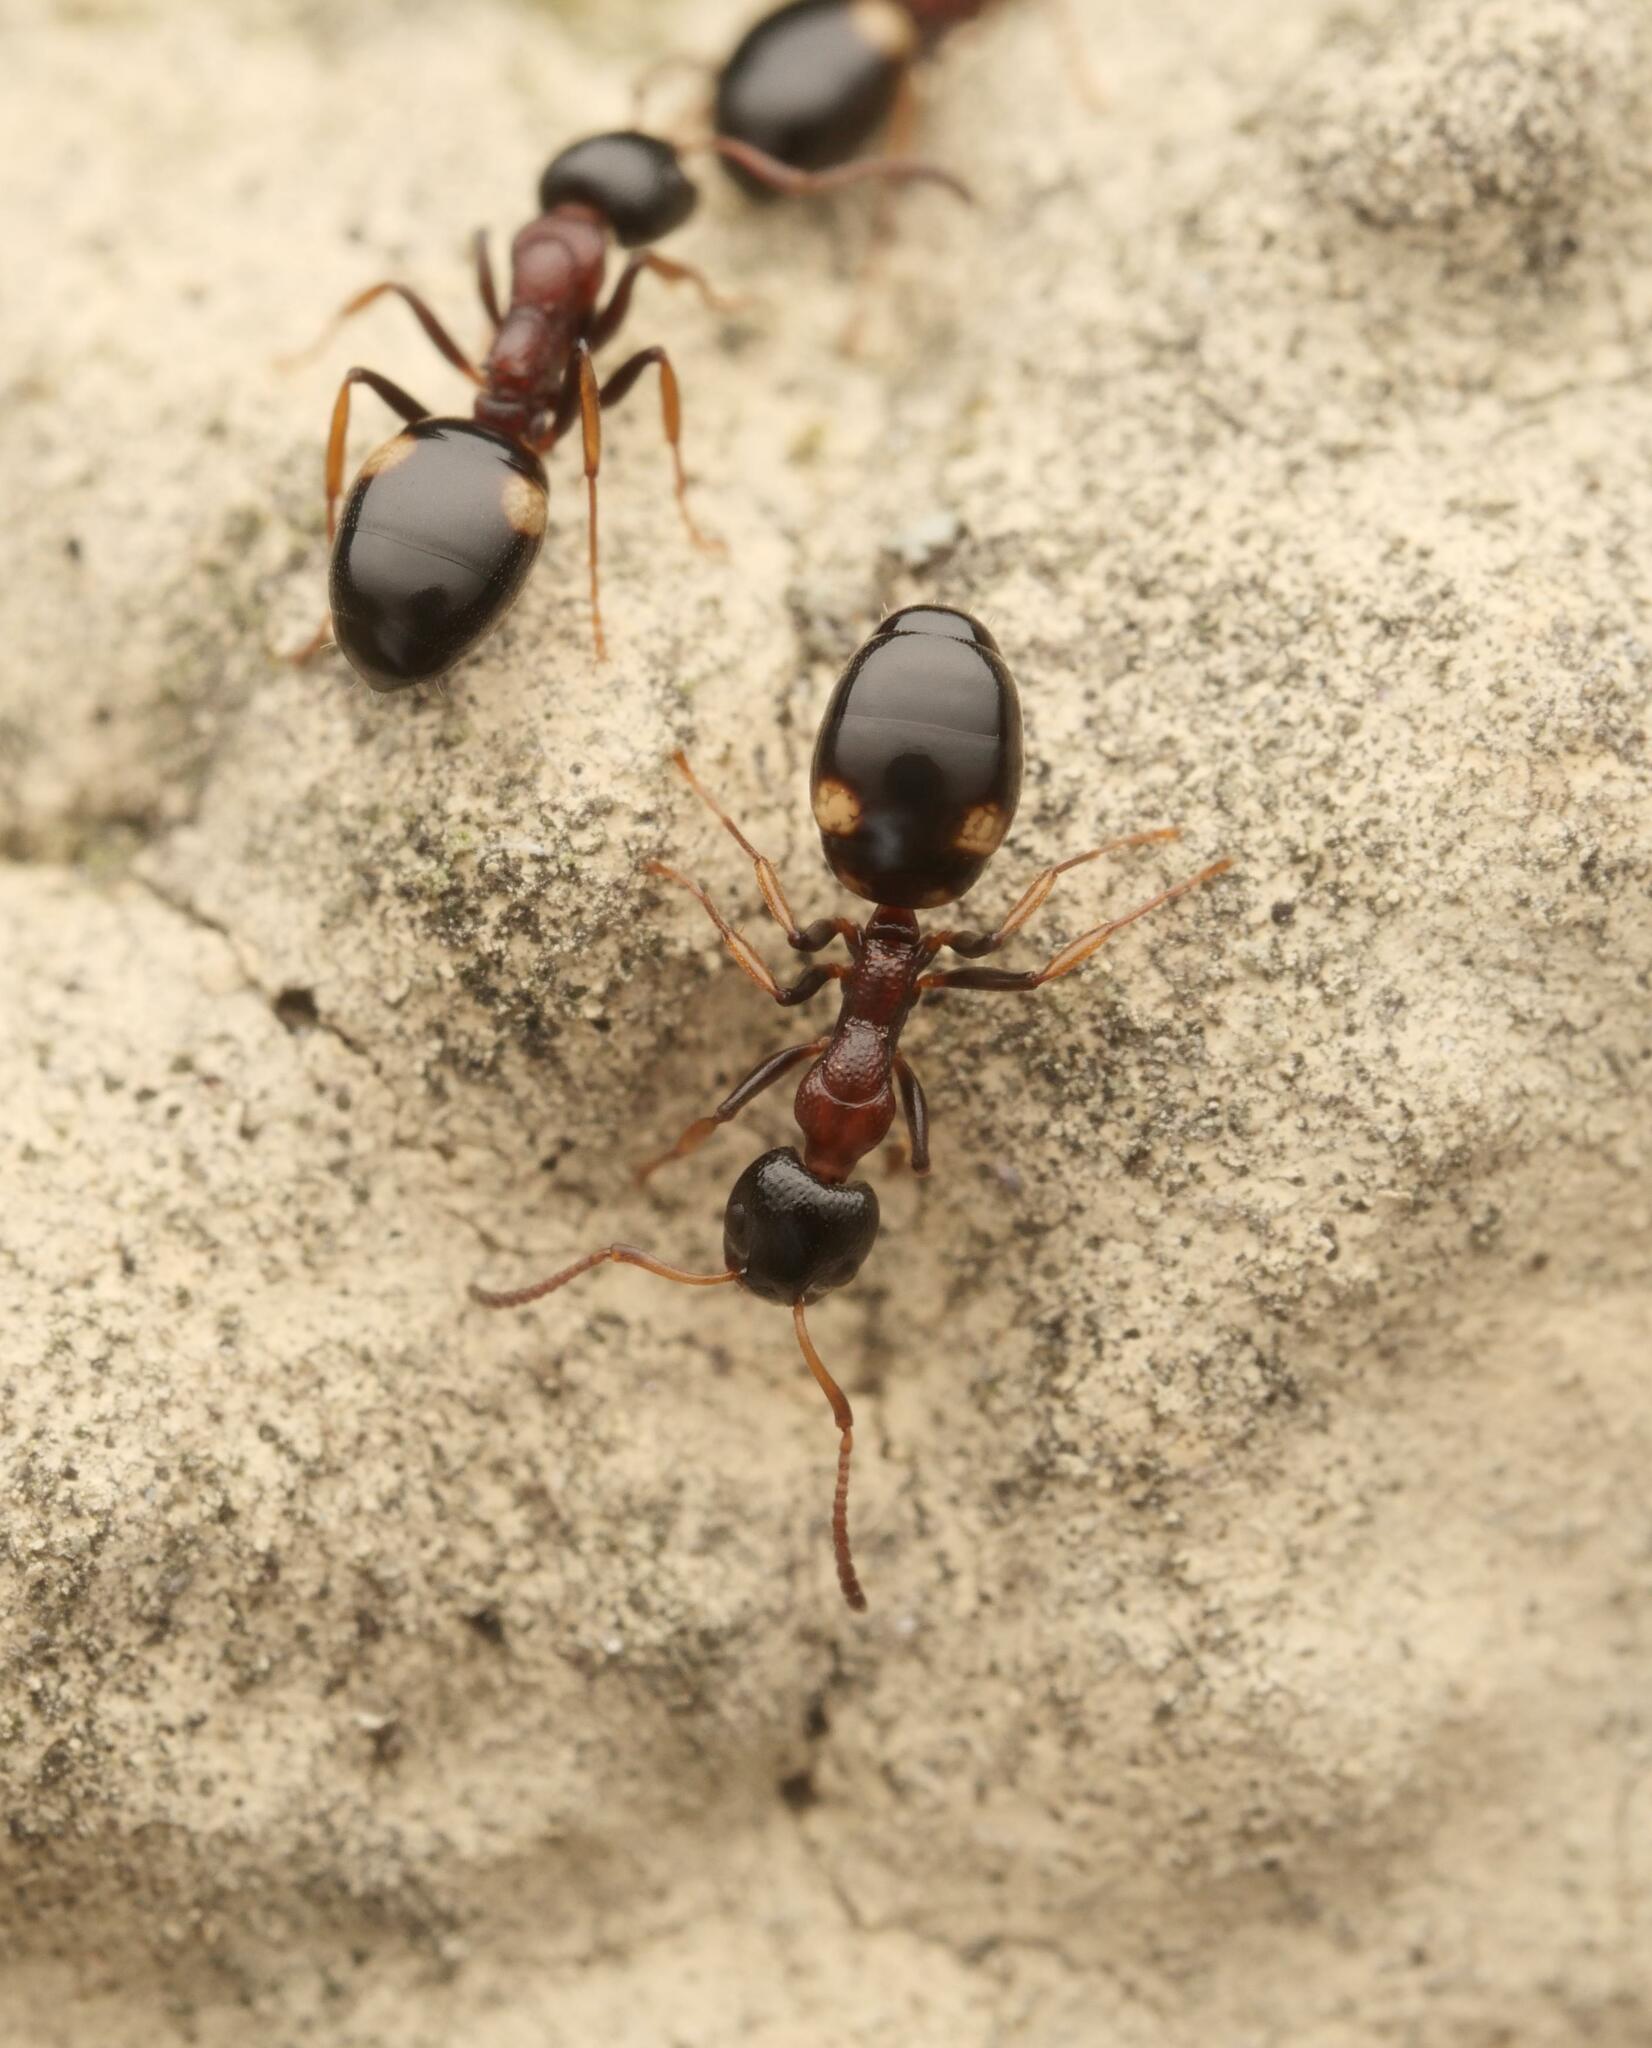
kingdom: Animalia
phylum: Arthropoda
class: Insecta
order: Hymenoptera
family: Formicidae
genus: Dolichoderus
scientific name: Dolichoderus quadripunctatus
